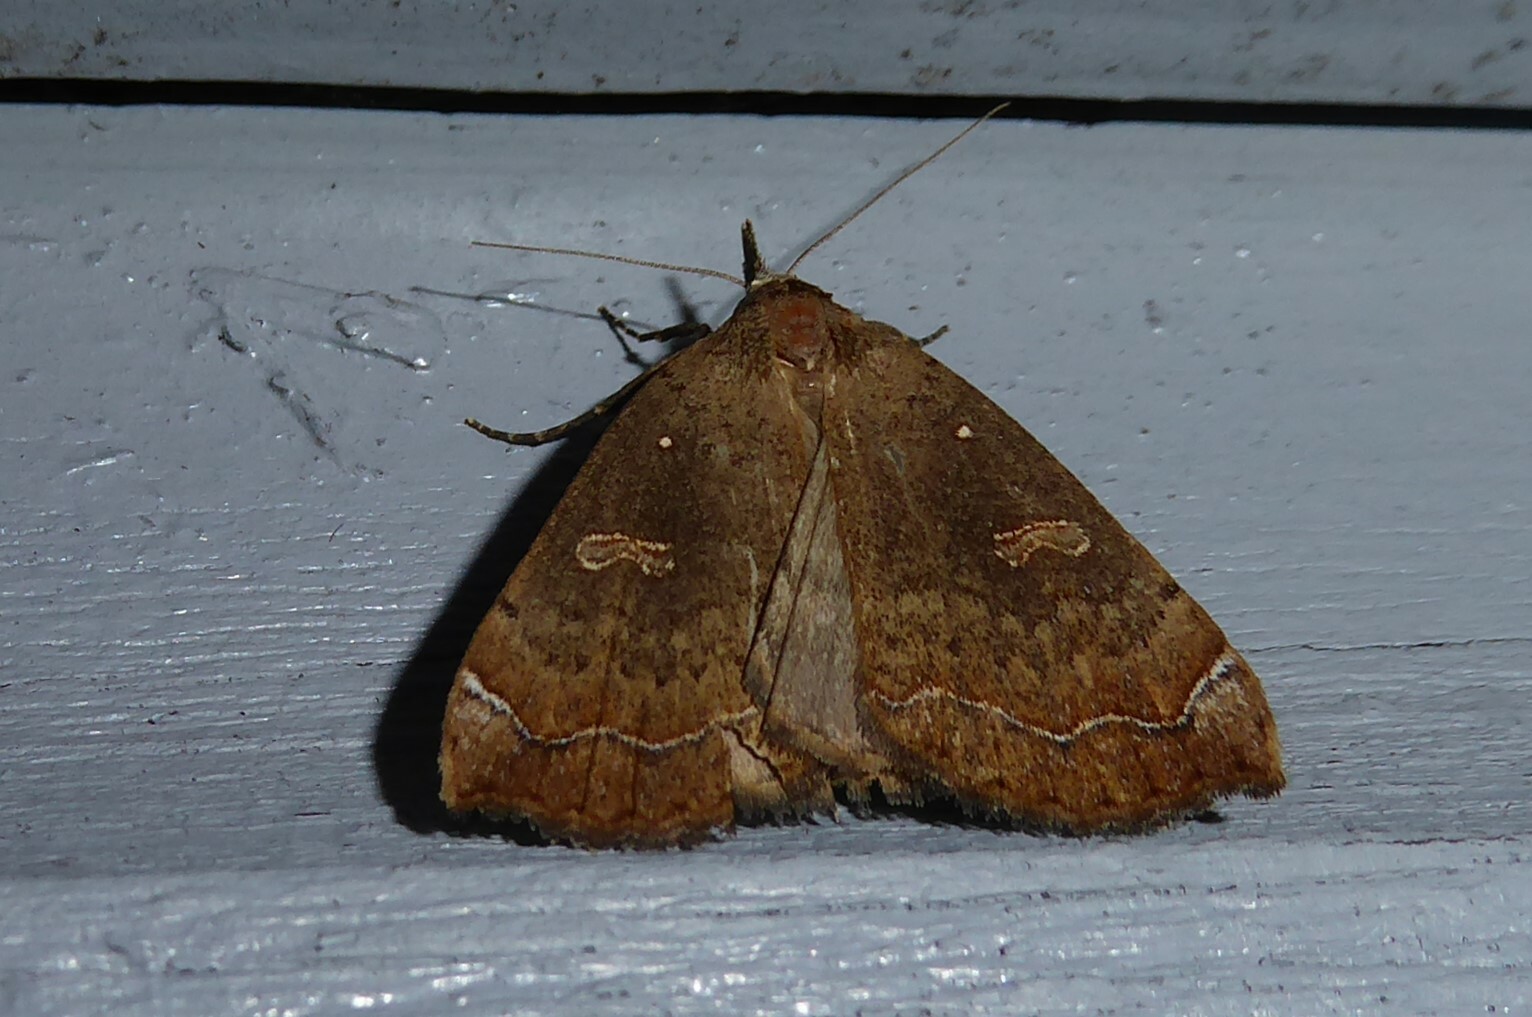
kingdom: Animalia
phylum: Arthropoda
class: Insecta
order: Lepidoptera
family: Erebidae
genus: Rhapsa
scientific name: Rhapsa scotosialis
